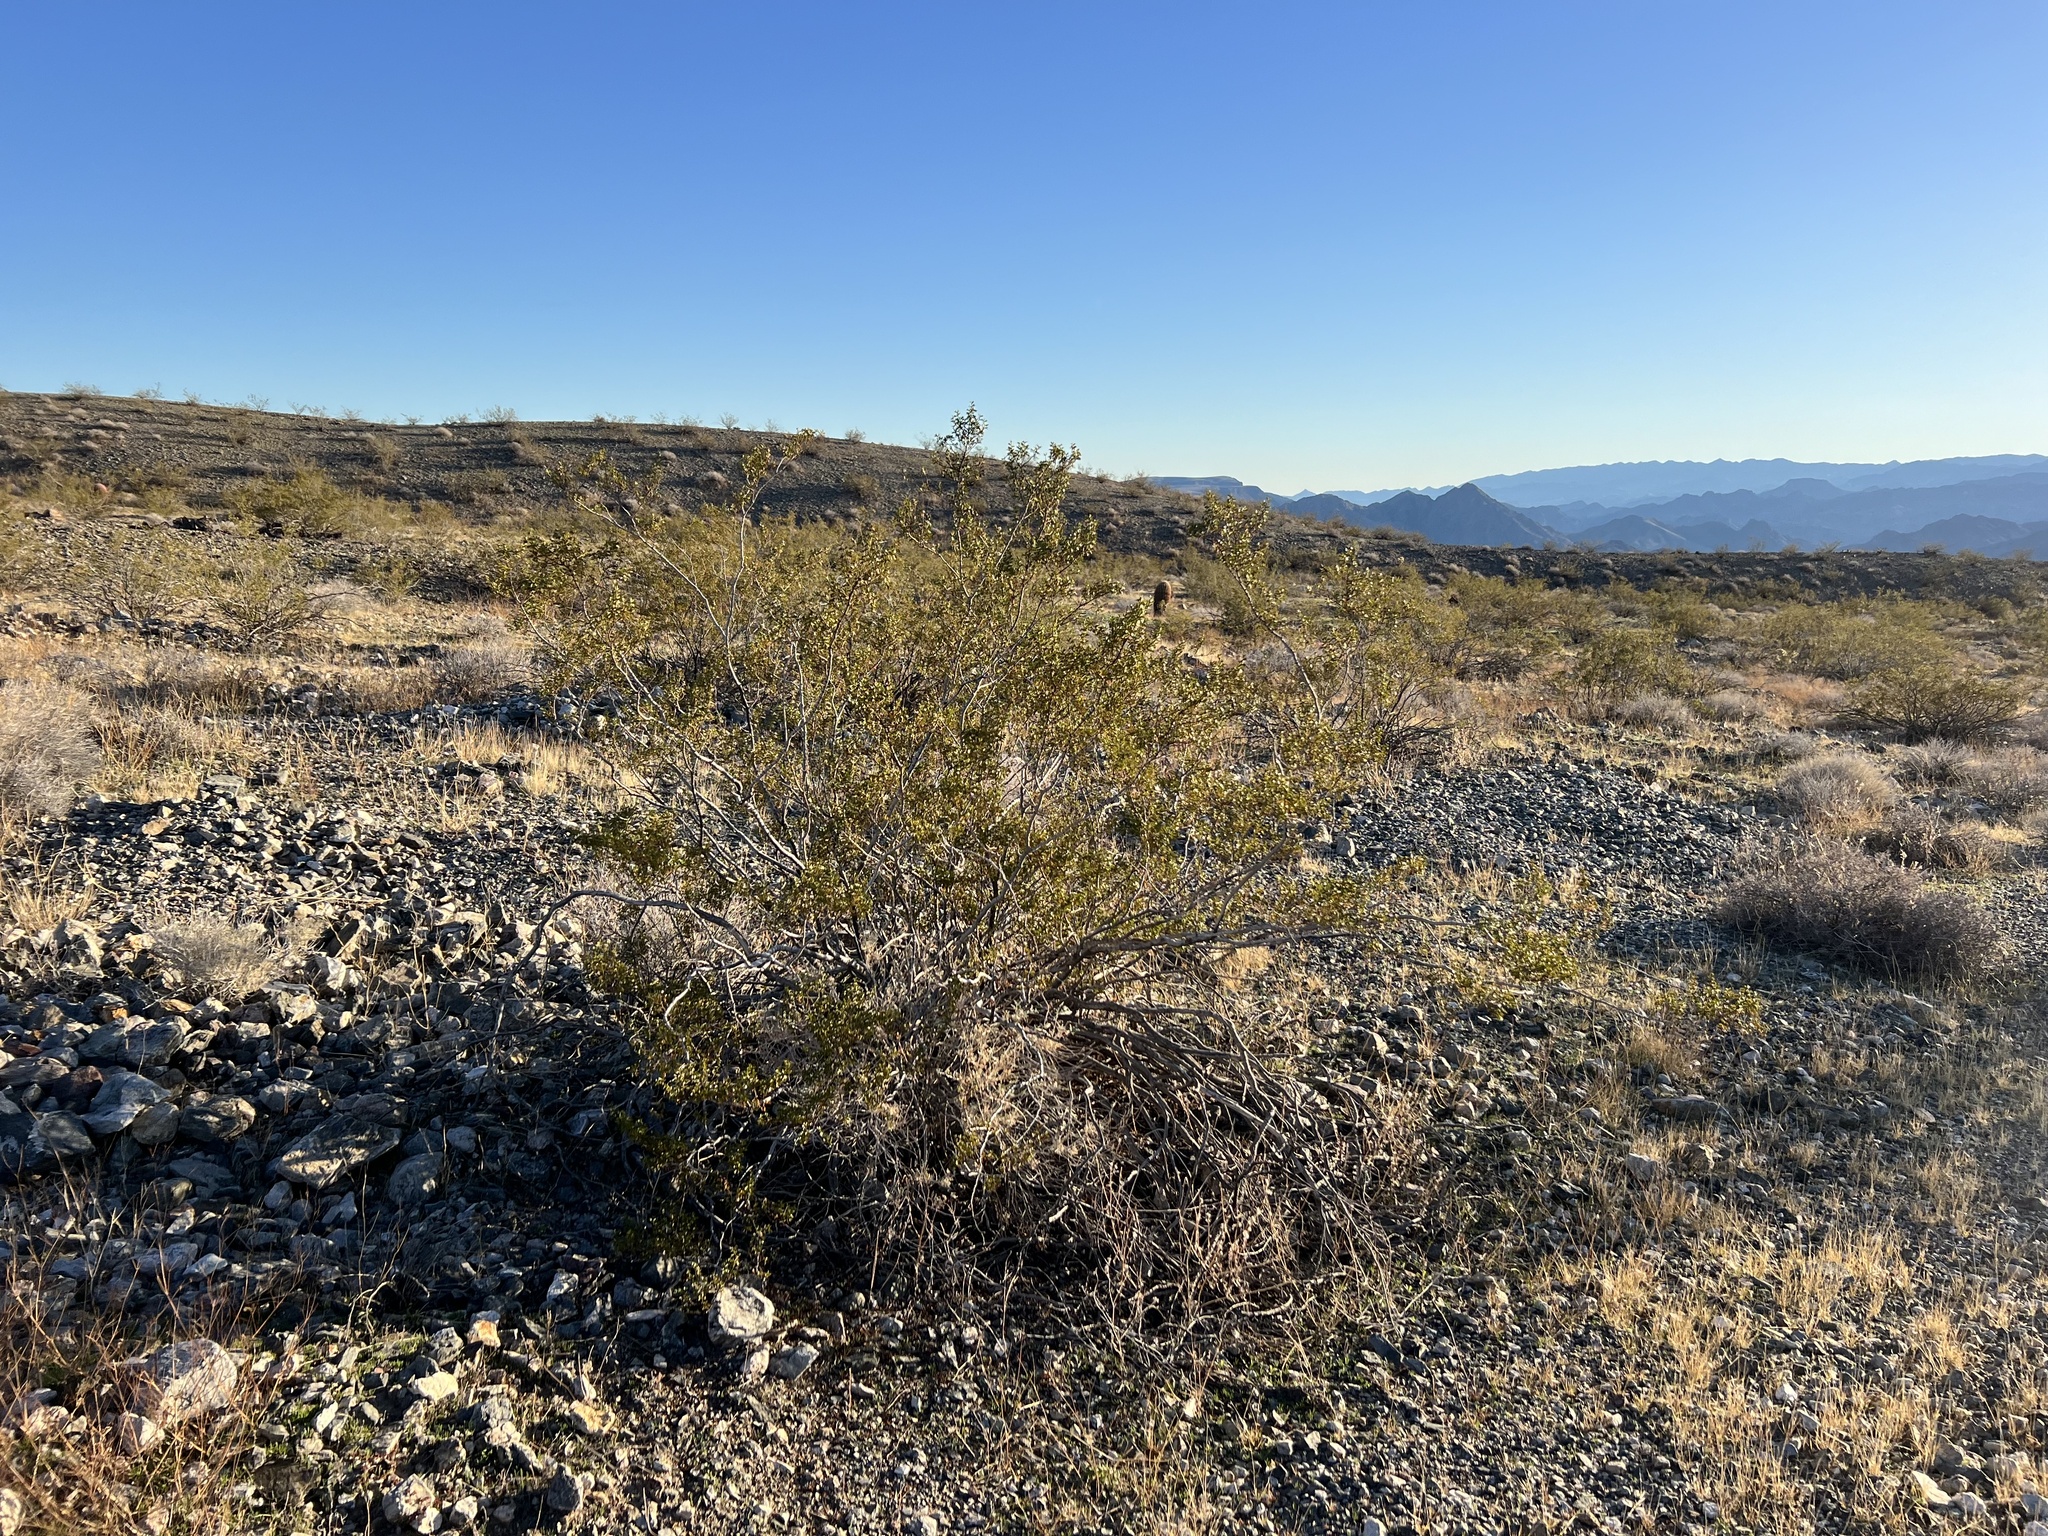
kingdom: Plantae
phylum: Tracheophyta
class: Magnoliopsida
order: Zygophyllales
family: Zygophyllaceae
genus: Larrea
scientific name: Larrea tridentata
